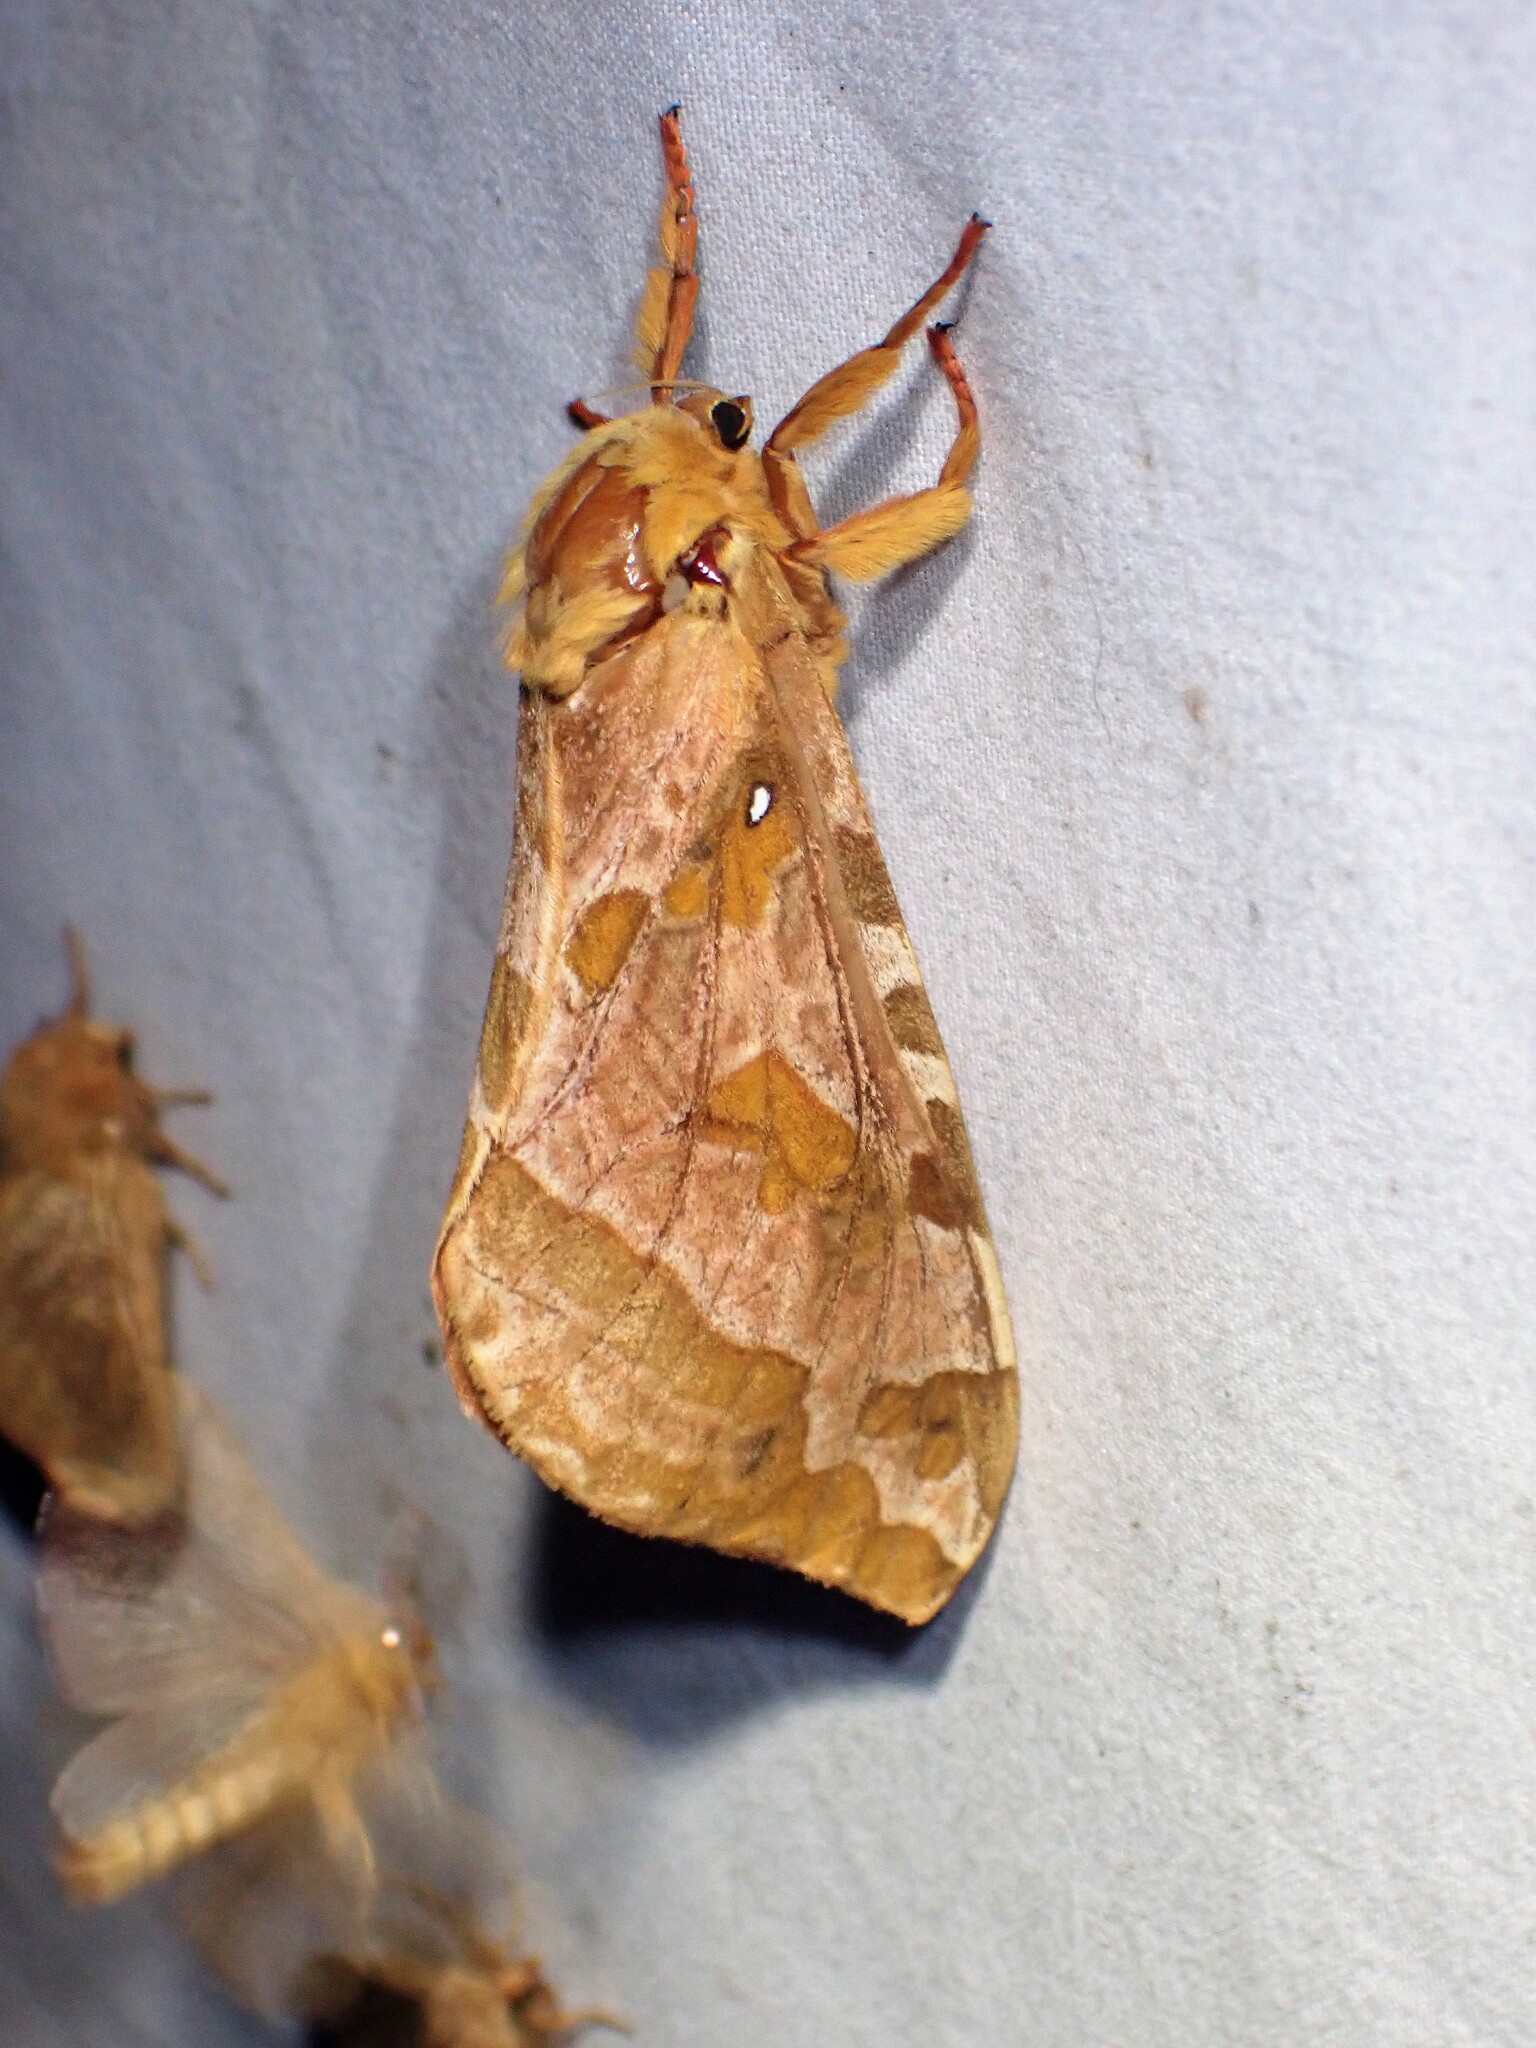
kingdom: Animalia
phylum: Arthropoda
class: Insecta
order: Lepidoptera
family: Hepialidae
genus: Sthenopis
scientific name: Sthenopis purpurascens
